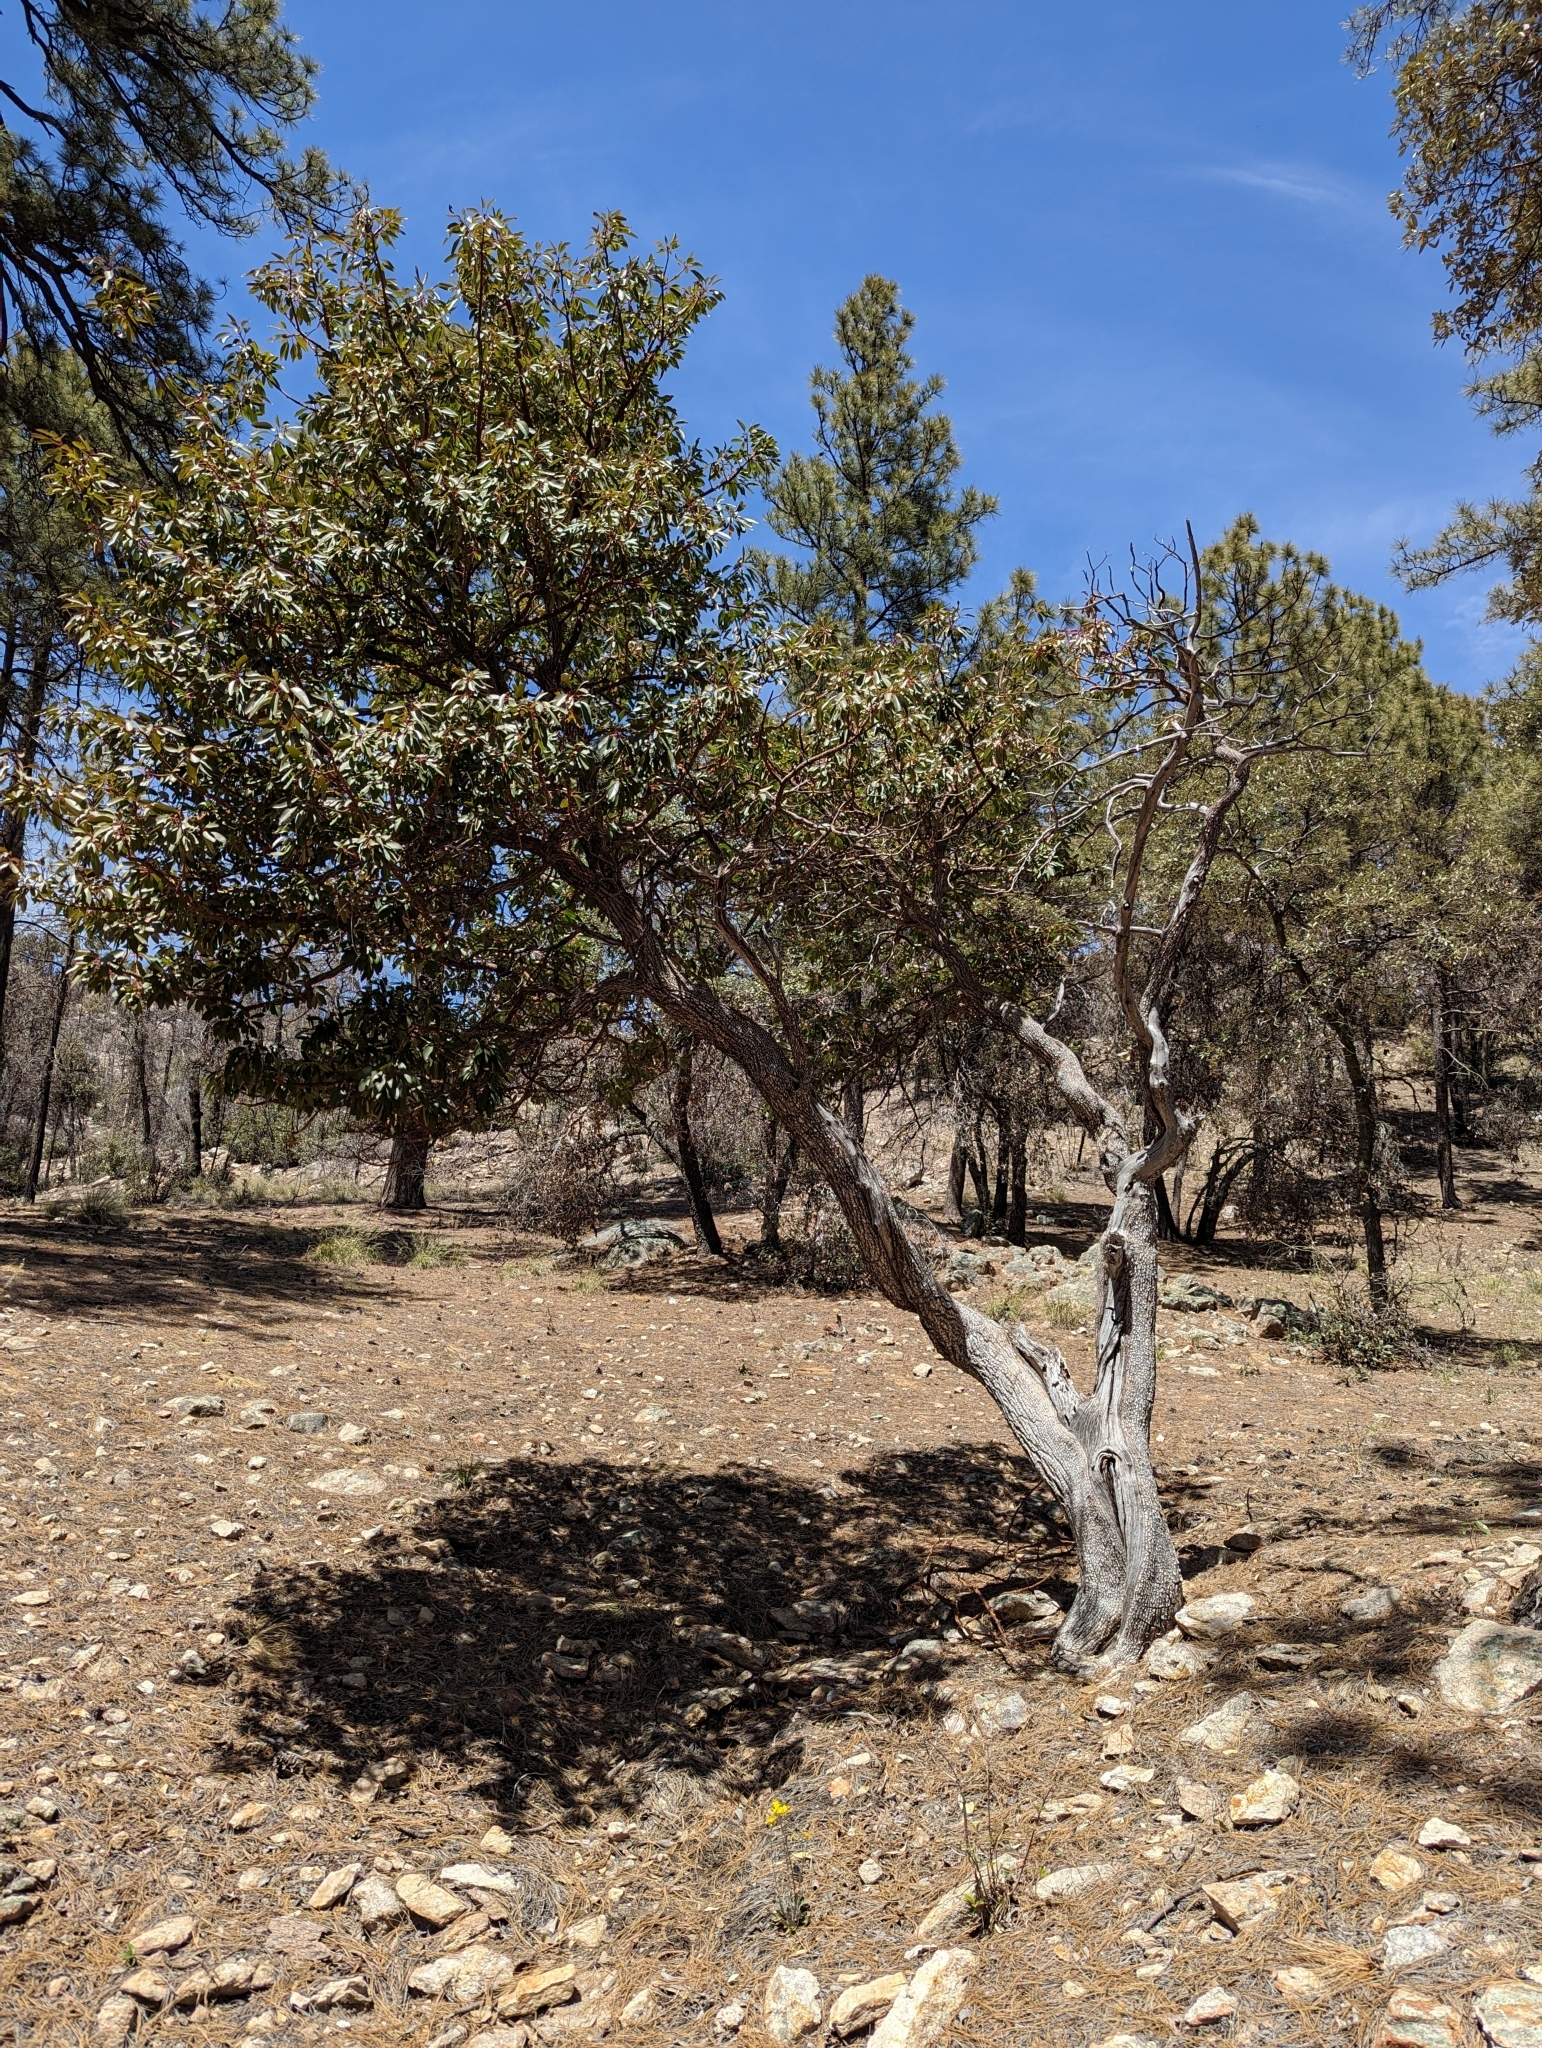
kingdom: Plantae
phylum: Tracheophyta
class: Magnoliopsida
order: Ericales
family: Ericaceae
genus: Arbutus
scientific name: Arbutus arizonica
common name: Arizona madrone
